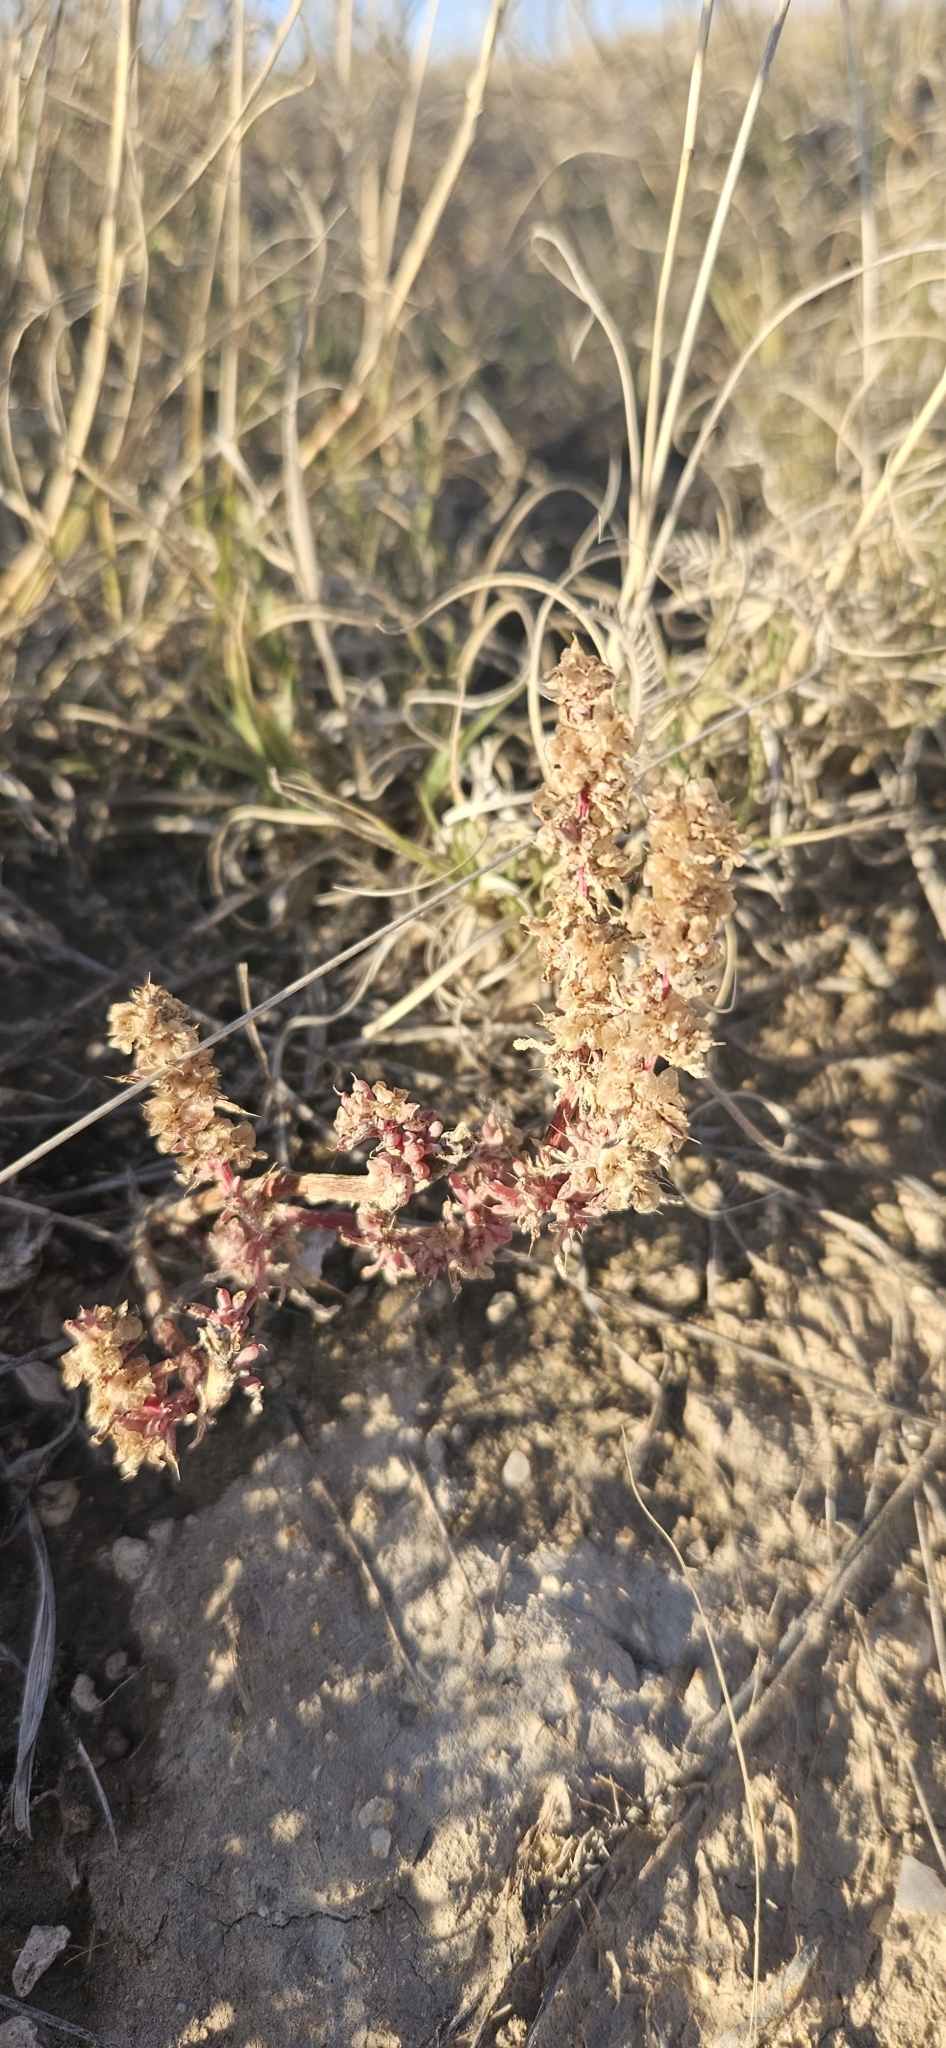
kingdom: Plantae
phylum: Tracheophyta
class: Magnoliopsida
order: Caryophyllales
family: Amaranthaceae
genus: Halogeton
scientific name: Halogeton glomeratus
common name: Saltlover
